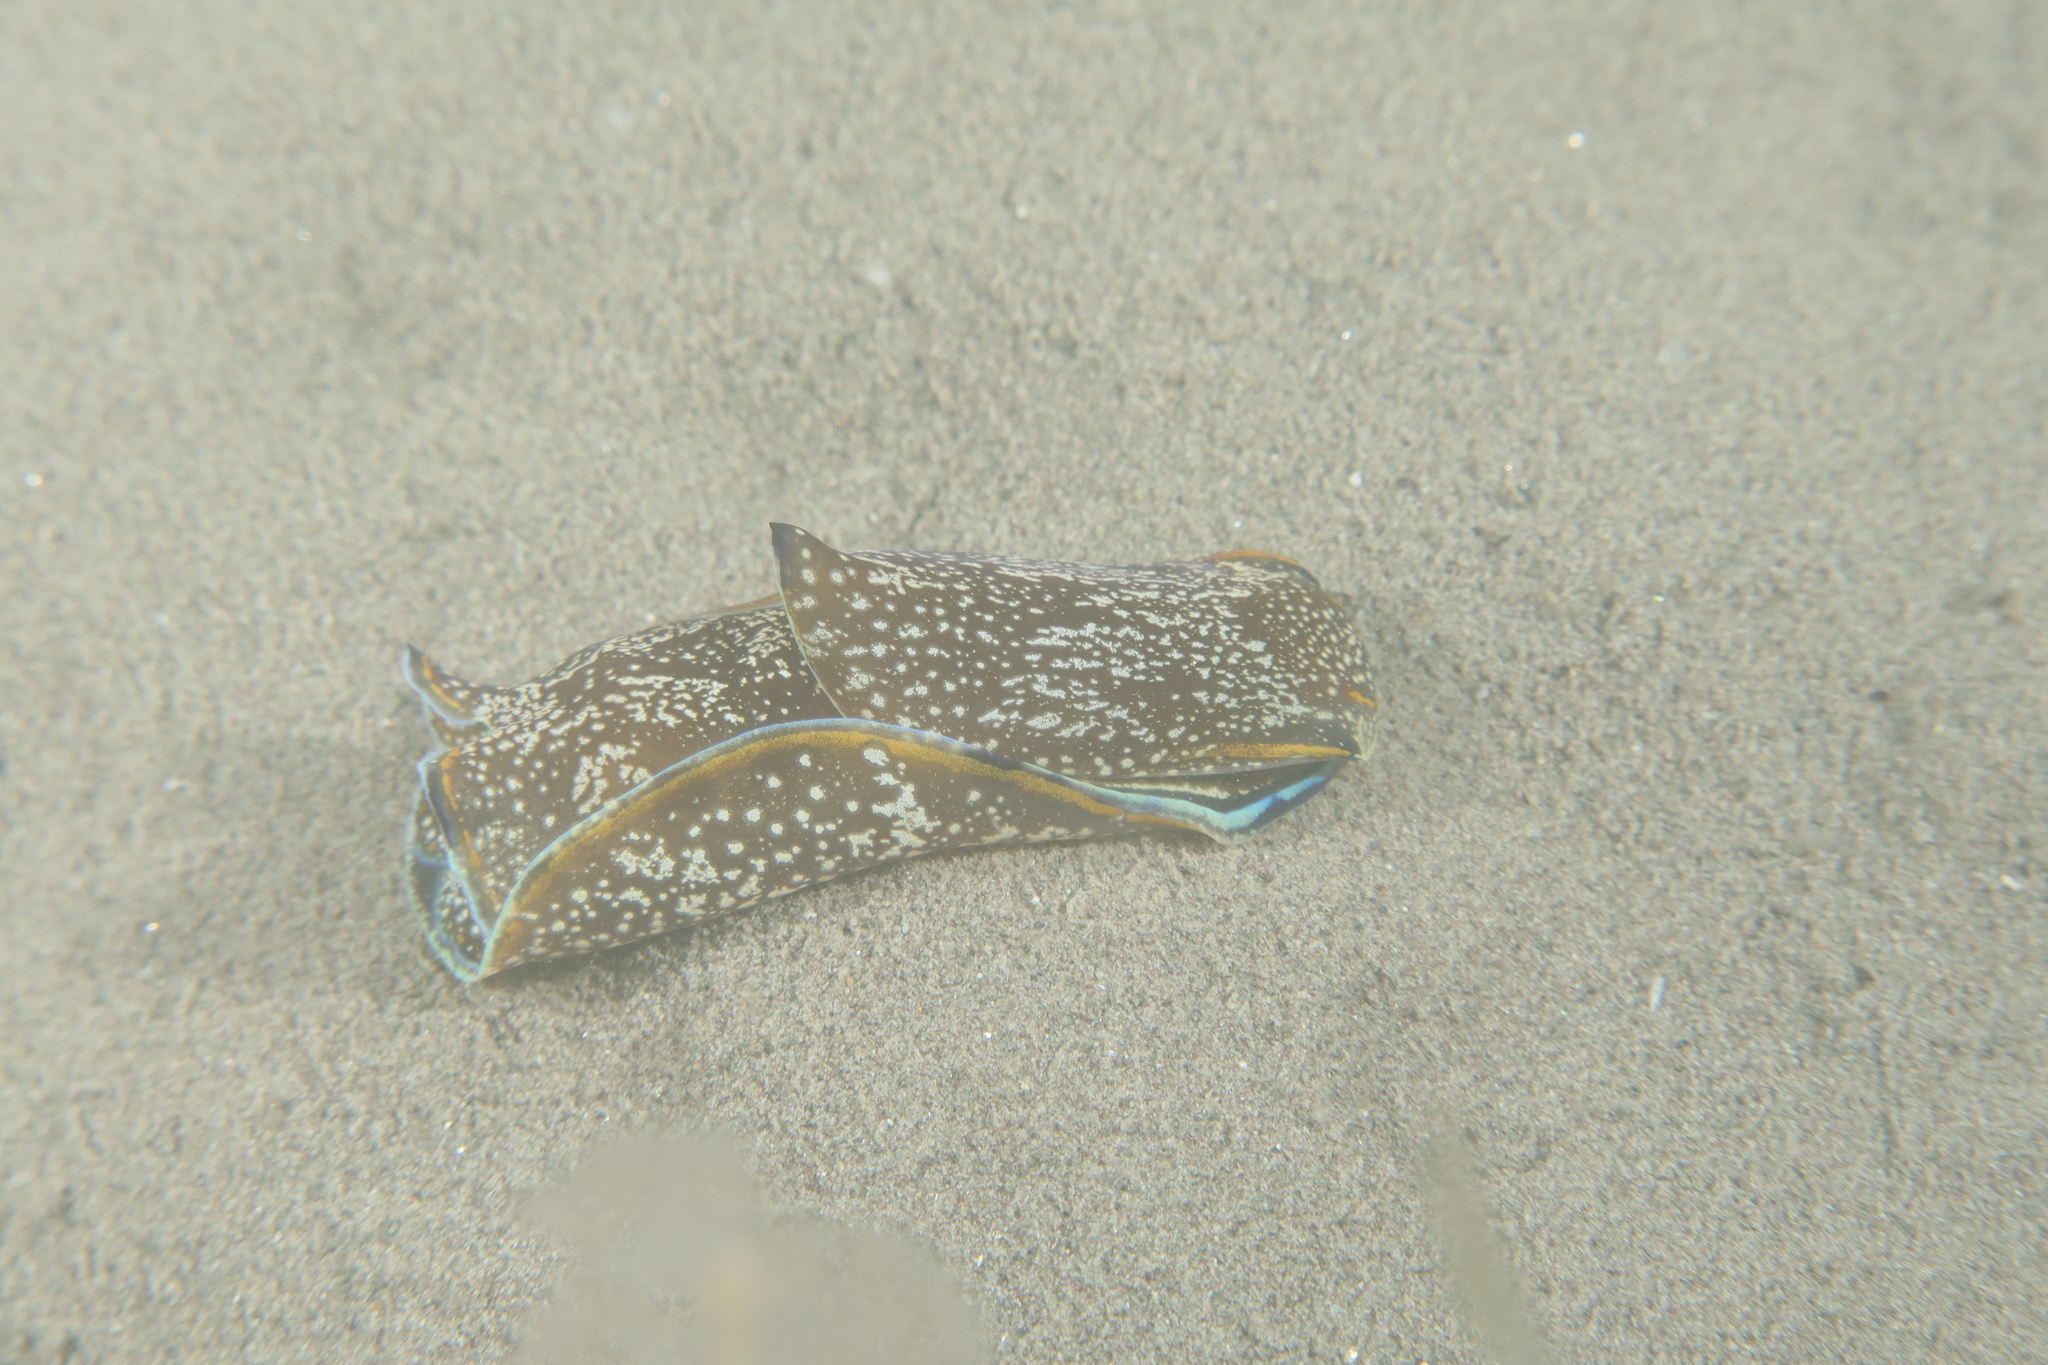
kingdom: Animalia
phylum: Mollusca
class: Gastropoda
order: Cephalaspidea
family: Aglajidae
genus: Philinopsis
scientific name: Philinopsis depicta
